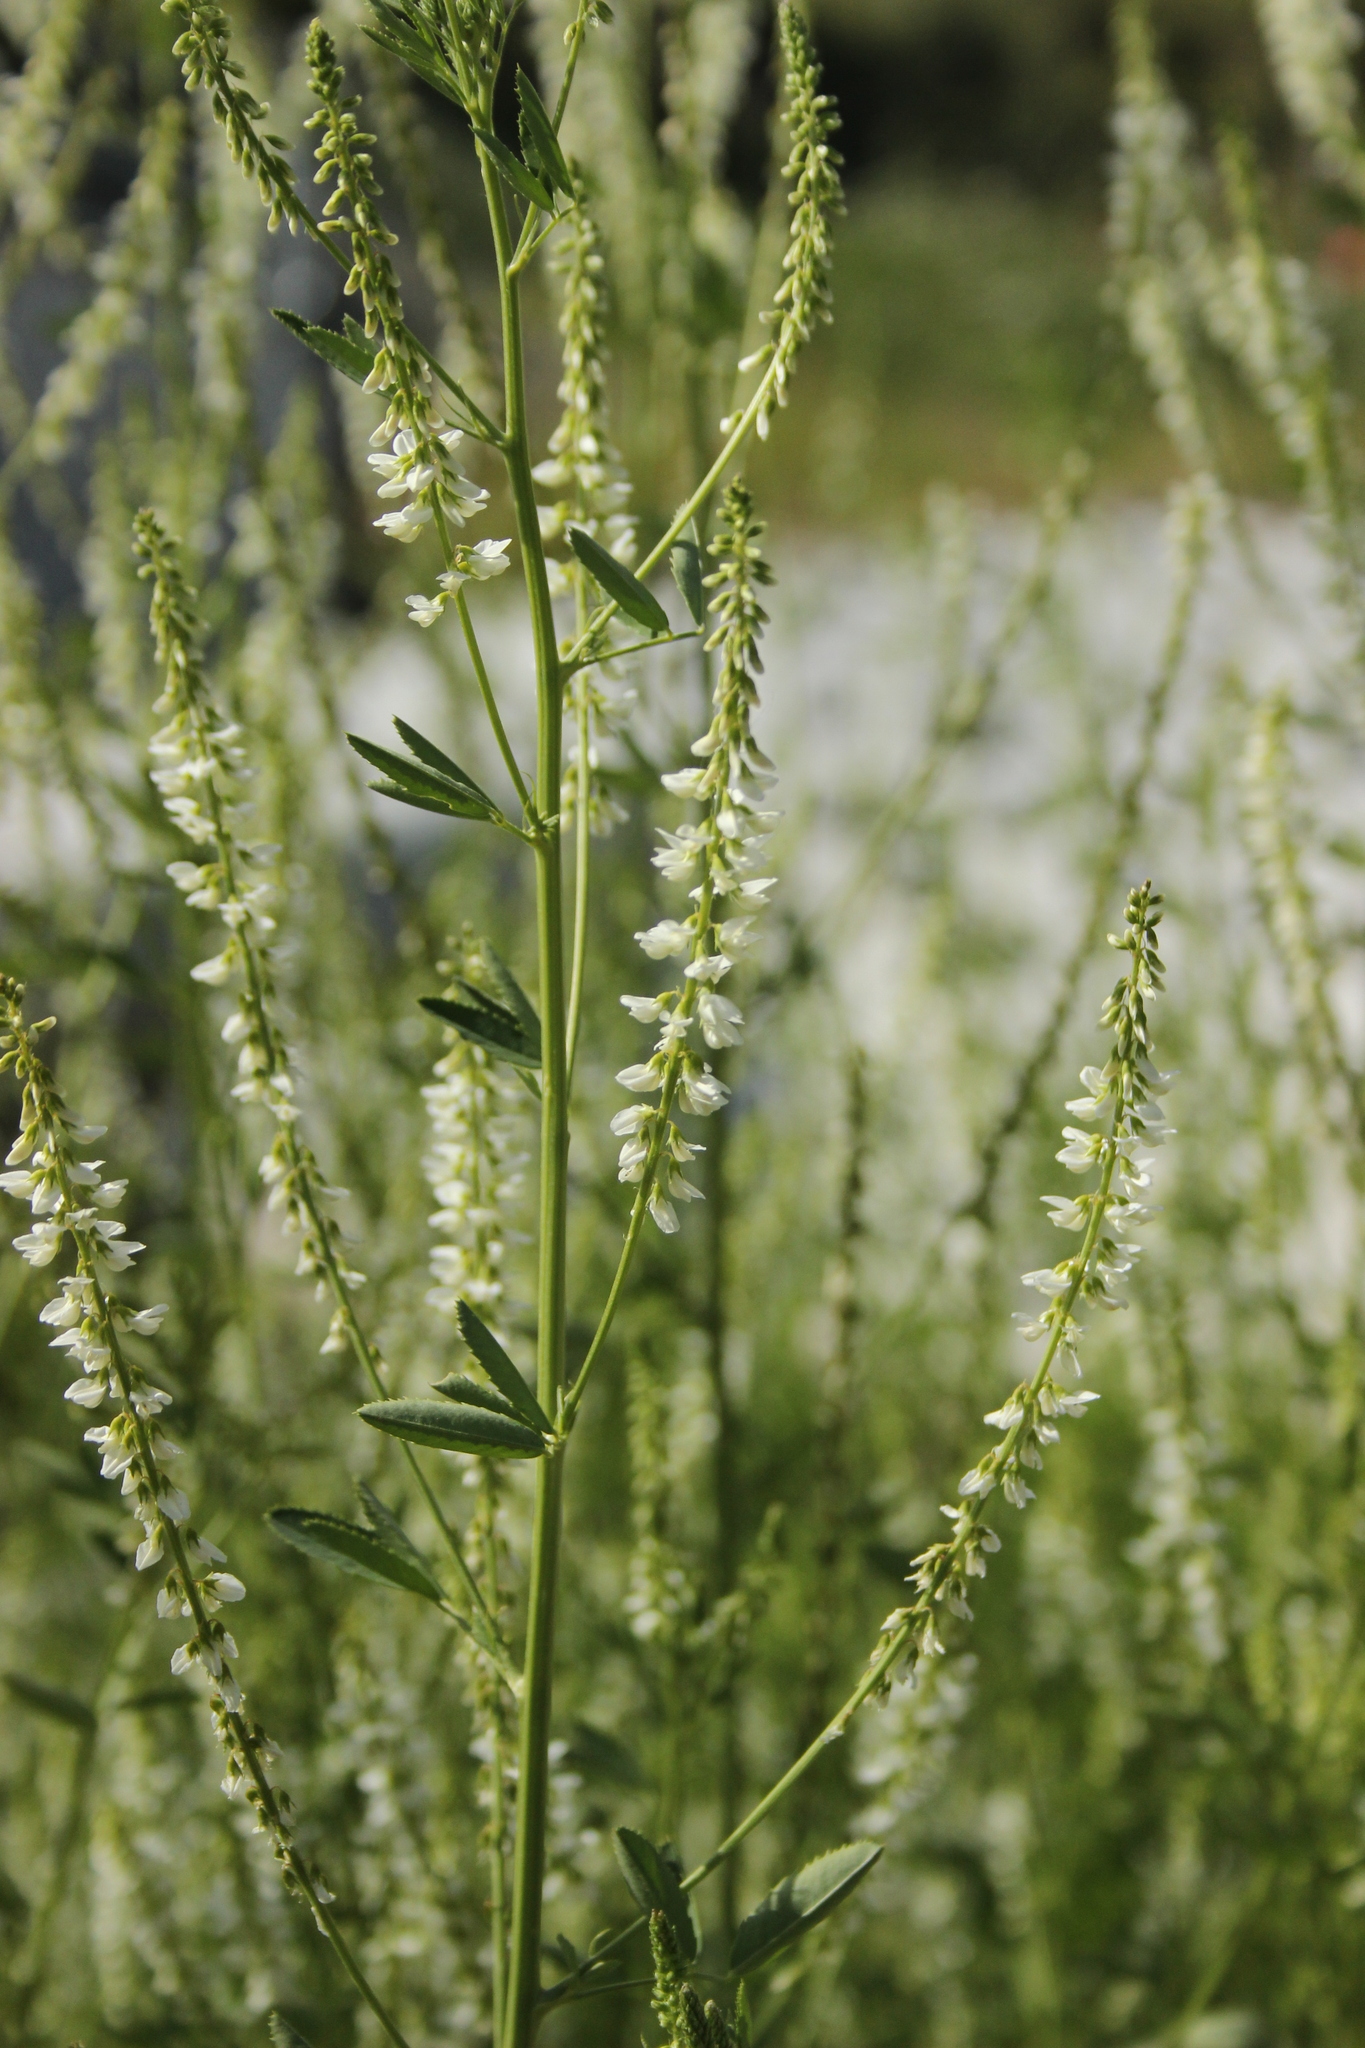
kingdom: Plantae
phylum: Tracheophyta
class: Magnoliopsida
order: Fabales
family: Fabaceae
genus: Melilotus
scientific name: Melilotus albus
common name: White melilot
